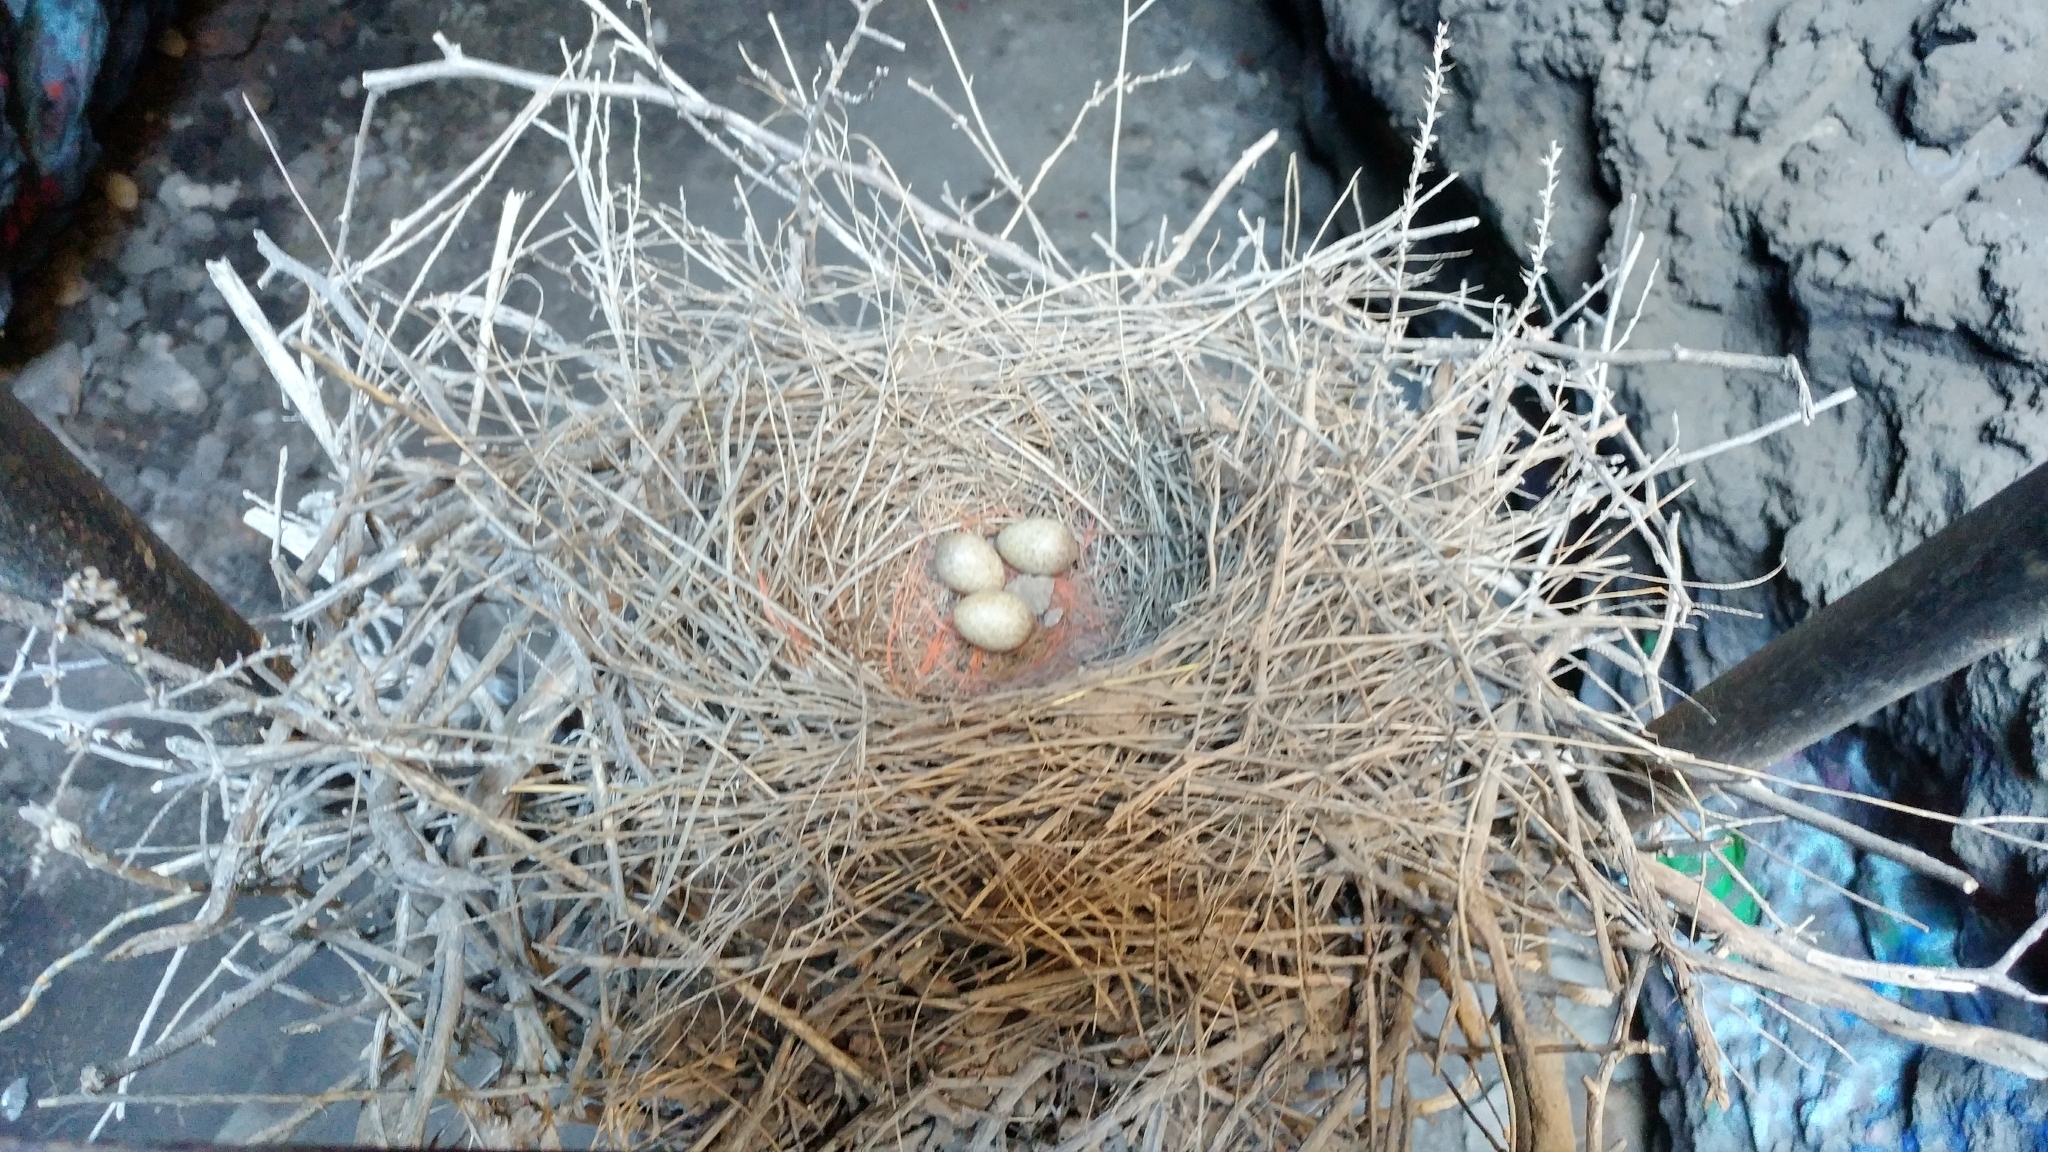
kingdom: Animalia
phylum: Chordata
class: Aves
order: Passeriformes
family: Corvidae
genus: Pica
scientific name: Pica hudsonia
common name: Black-billed magpie
